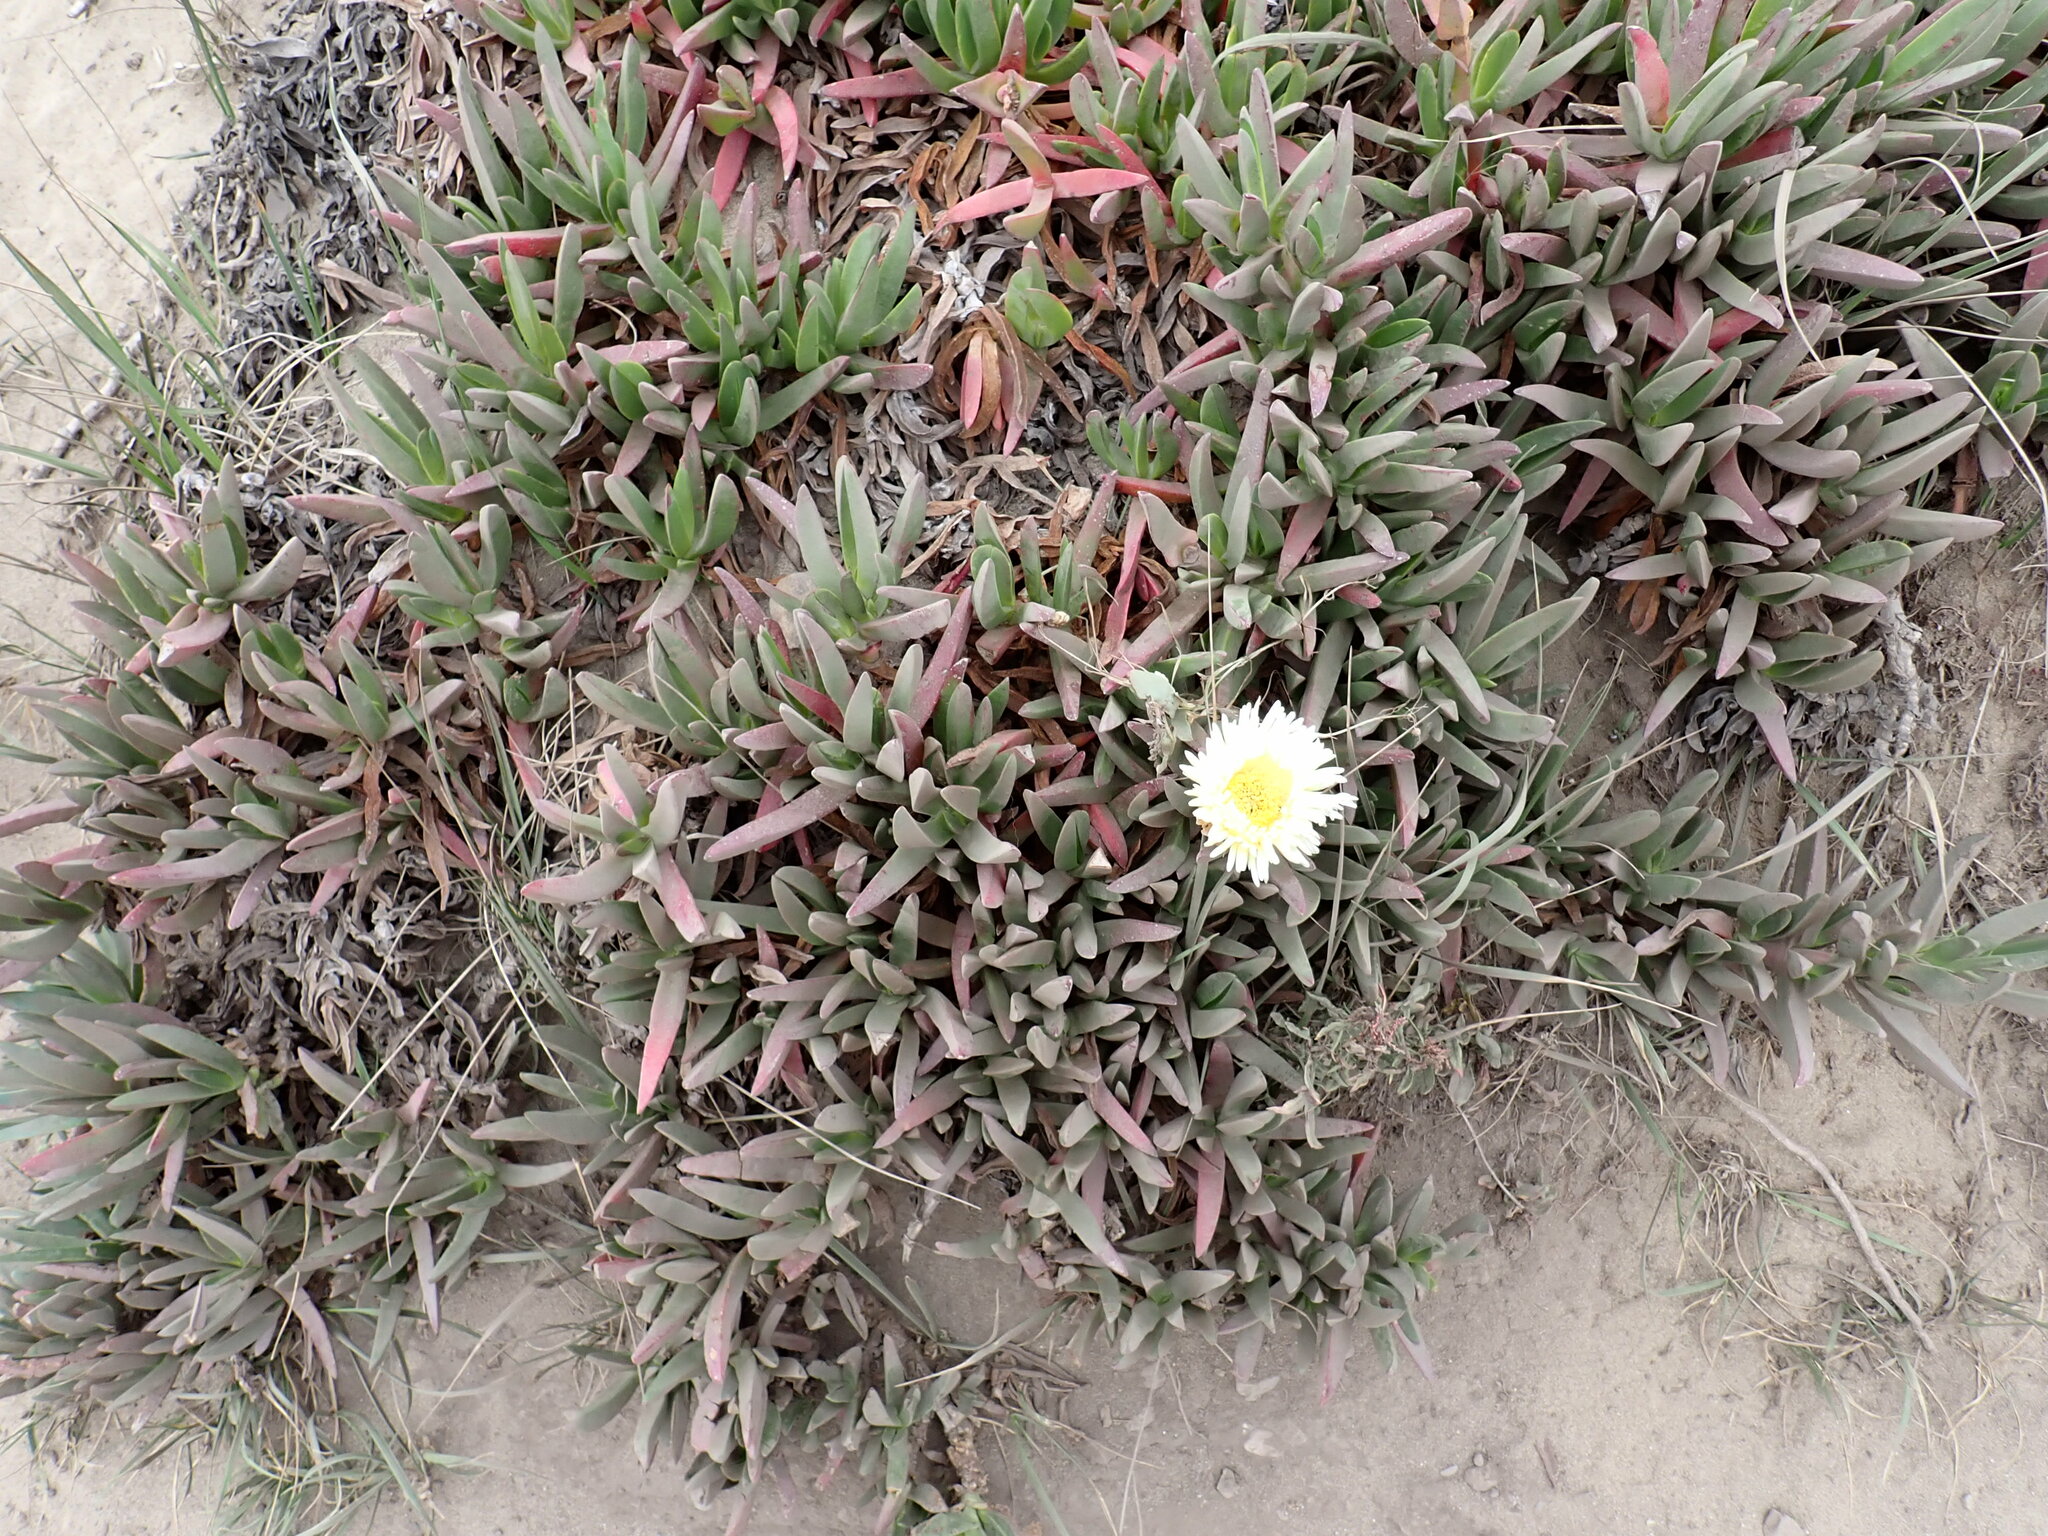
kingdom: Plantae
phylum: Tracheophyta
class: Magnoliopsida
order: Caryophyllales
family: Aizoaceae
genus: Carpobrotus
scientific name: Carpobrotus edulis
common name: Hottentot-fig
